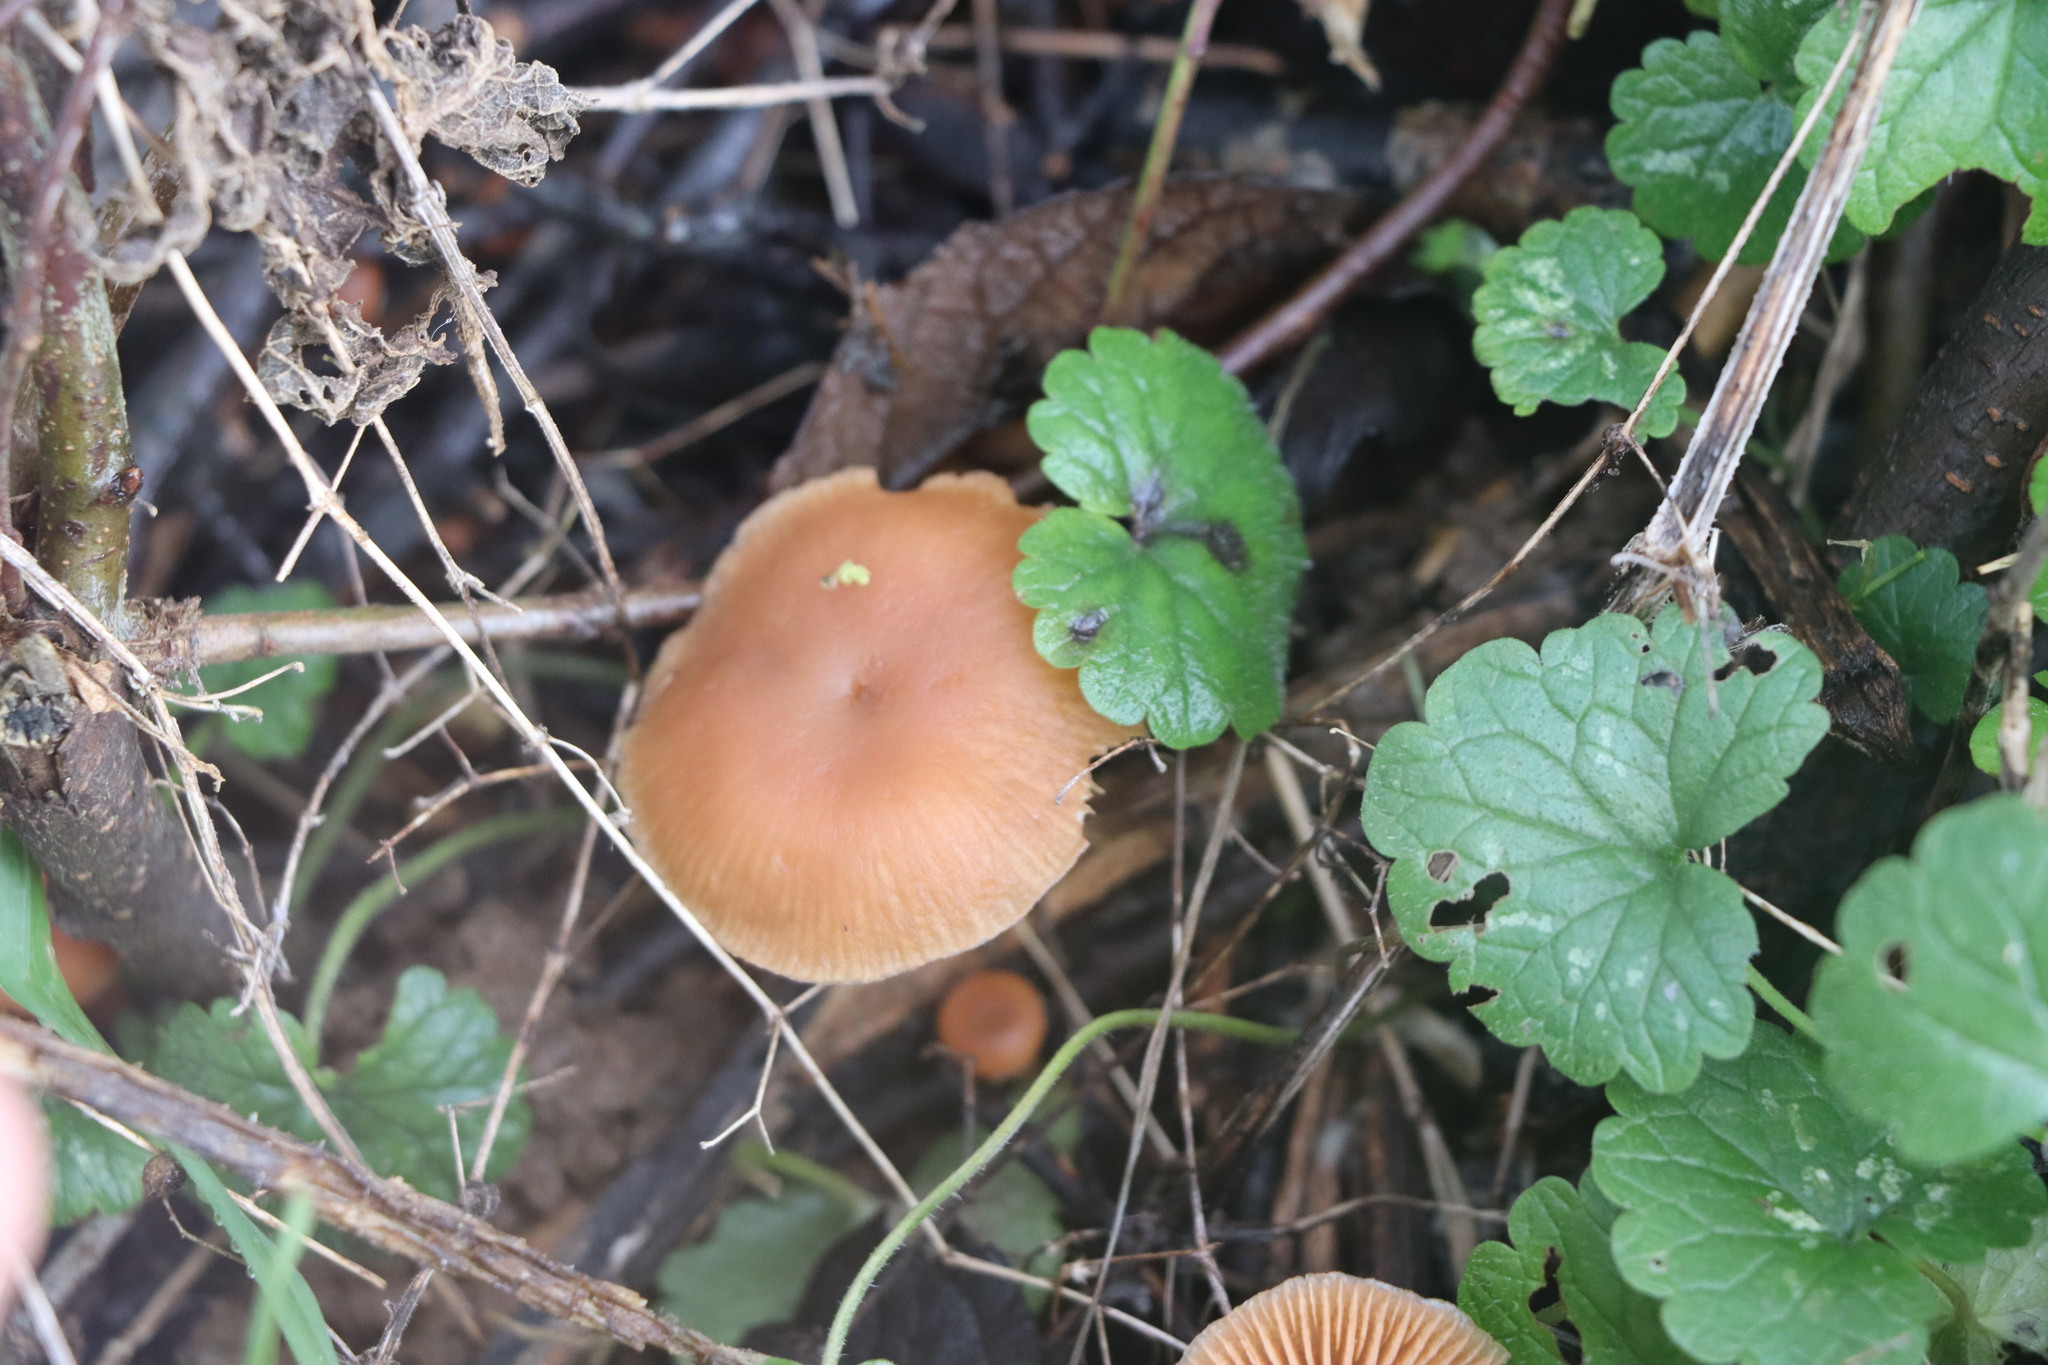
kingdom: Fungi
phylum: Basidiomycota
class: Agaricomycetes
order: Agaricales
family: Tubariaceae
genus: Tubaria
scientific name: Tubaria furfuracea
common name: Scurfy twiglet
